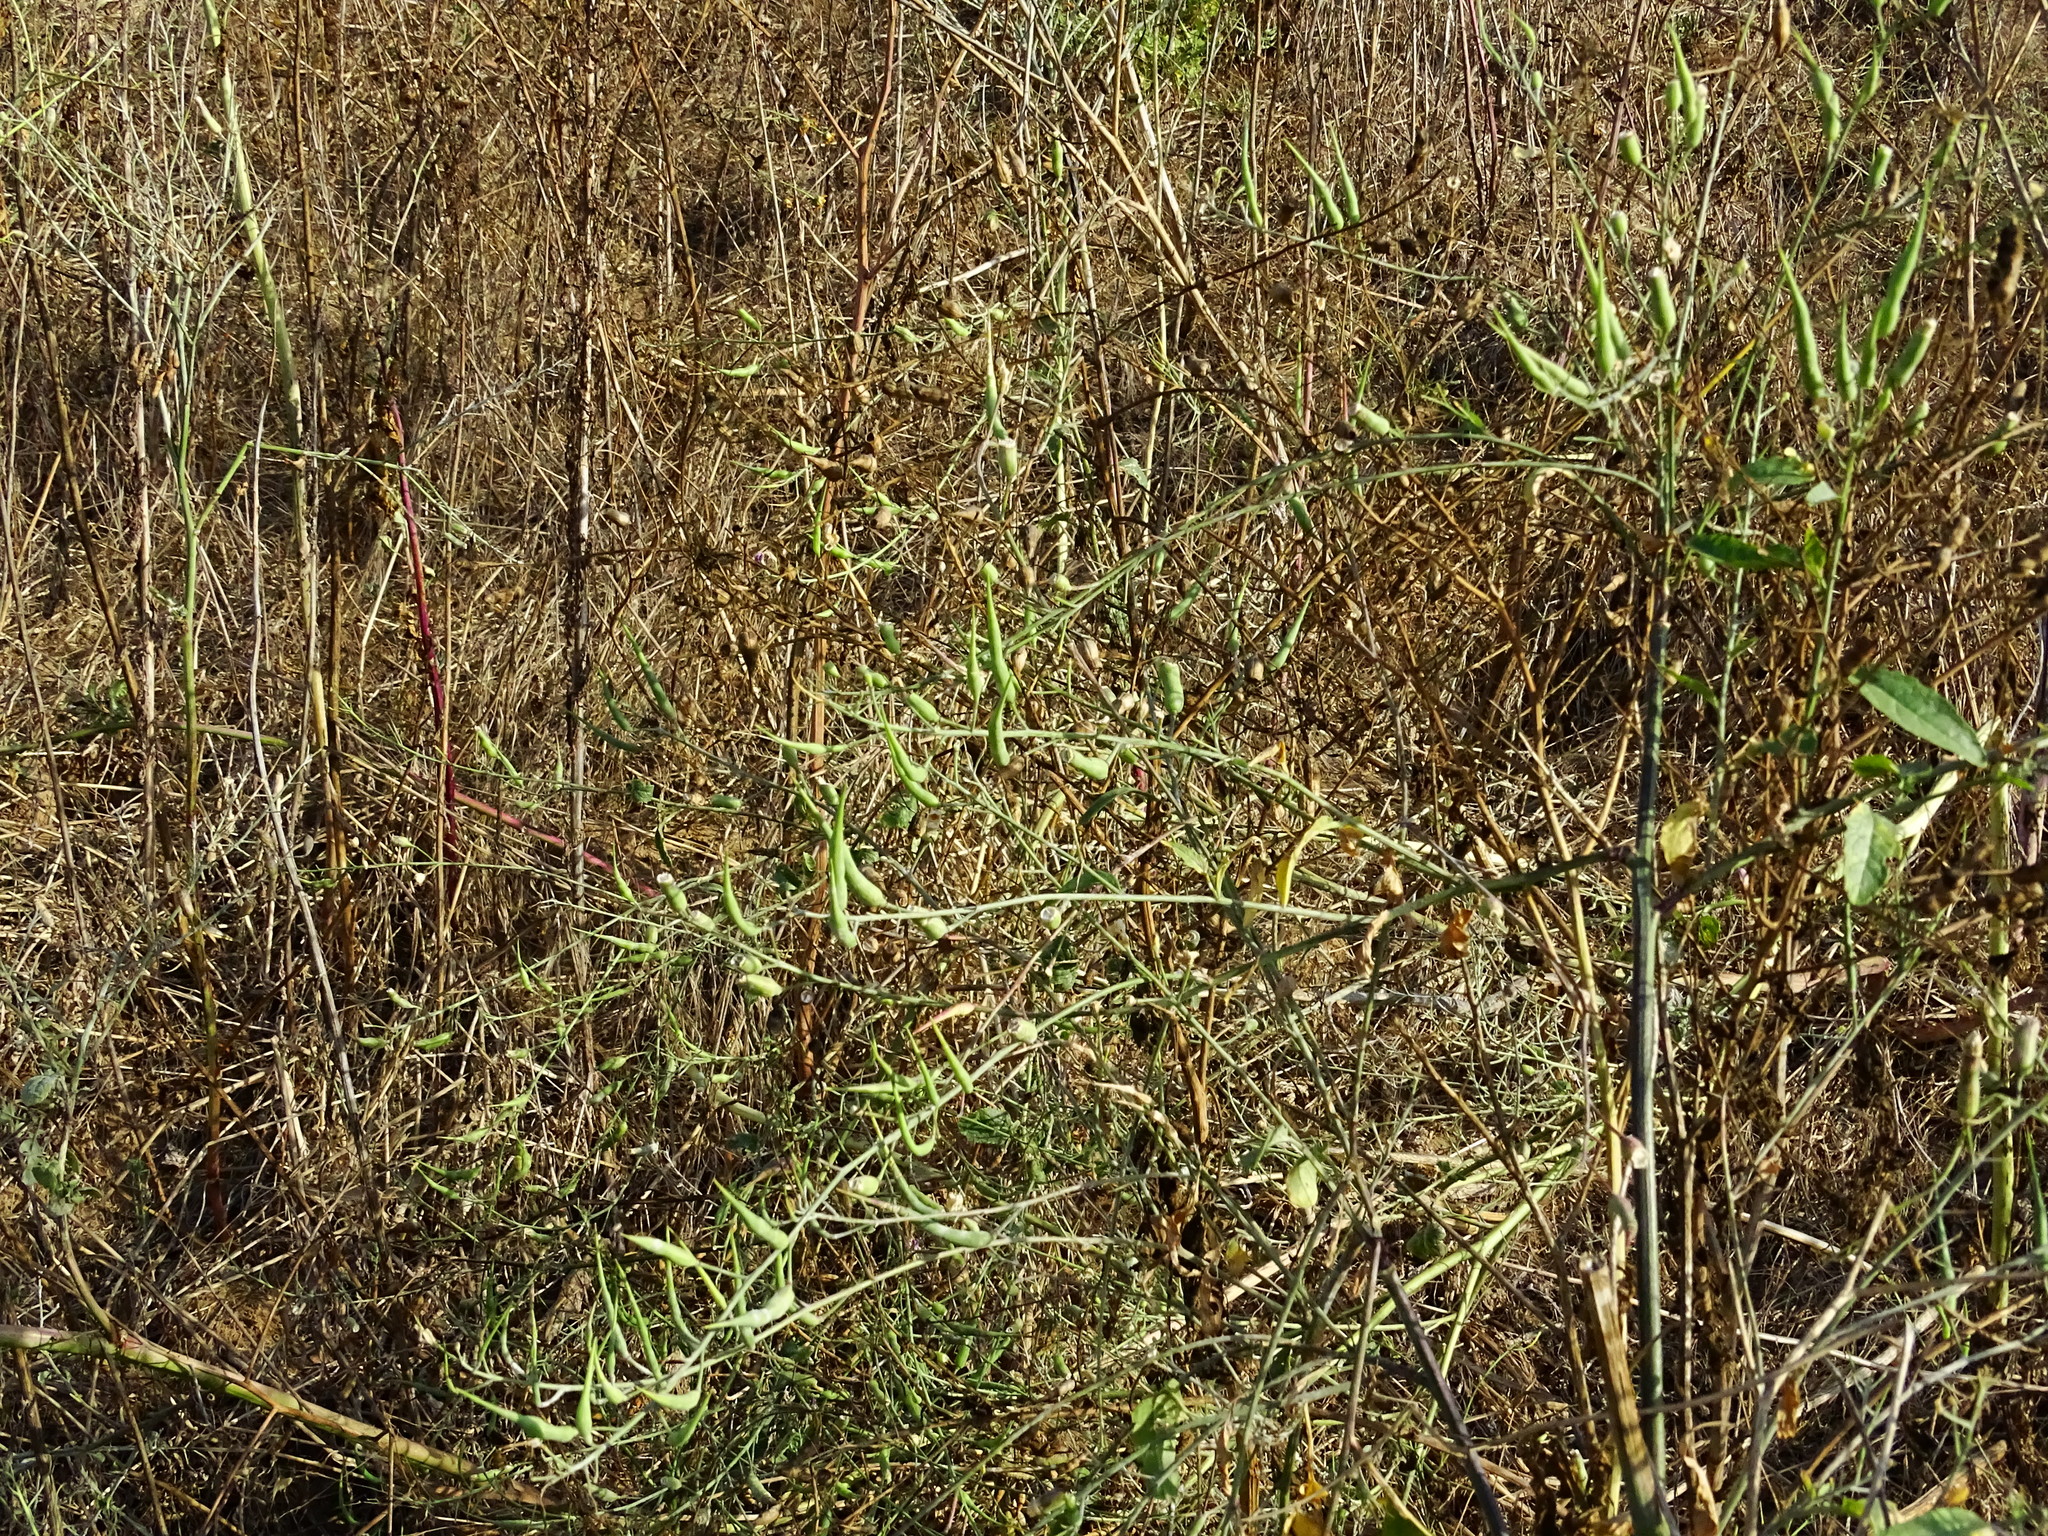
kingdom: Plantae
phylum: Tracheophyta
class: Magnoliopsida
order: Brassicales
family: Brassicaceae
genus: Raphanus
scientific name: Raphanus sativus
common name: Cultivated radish
